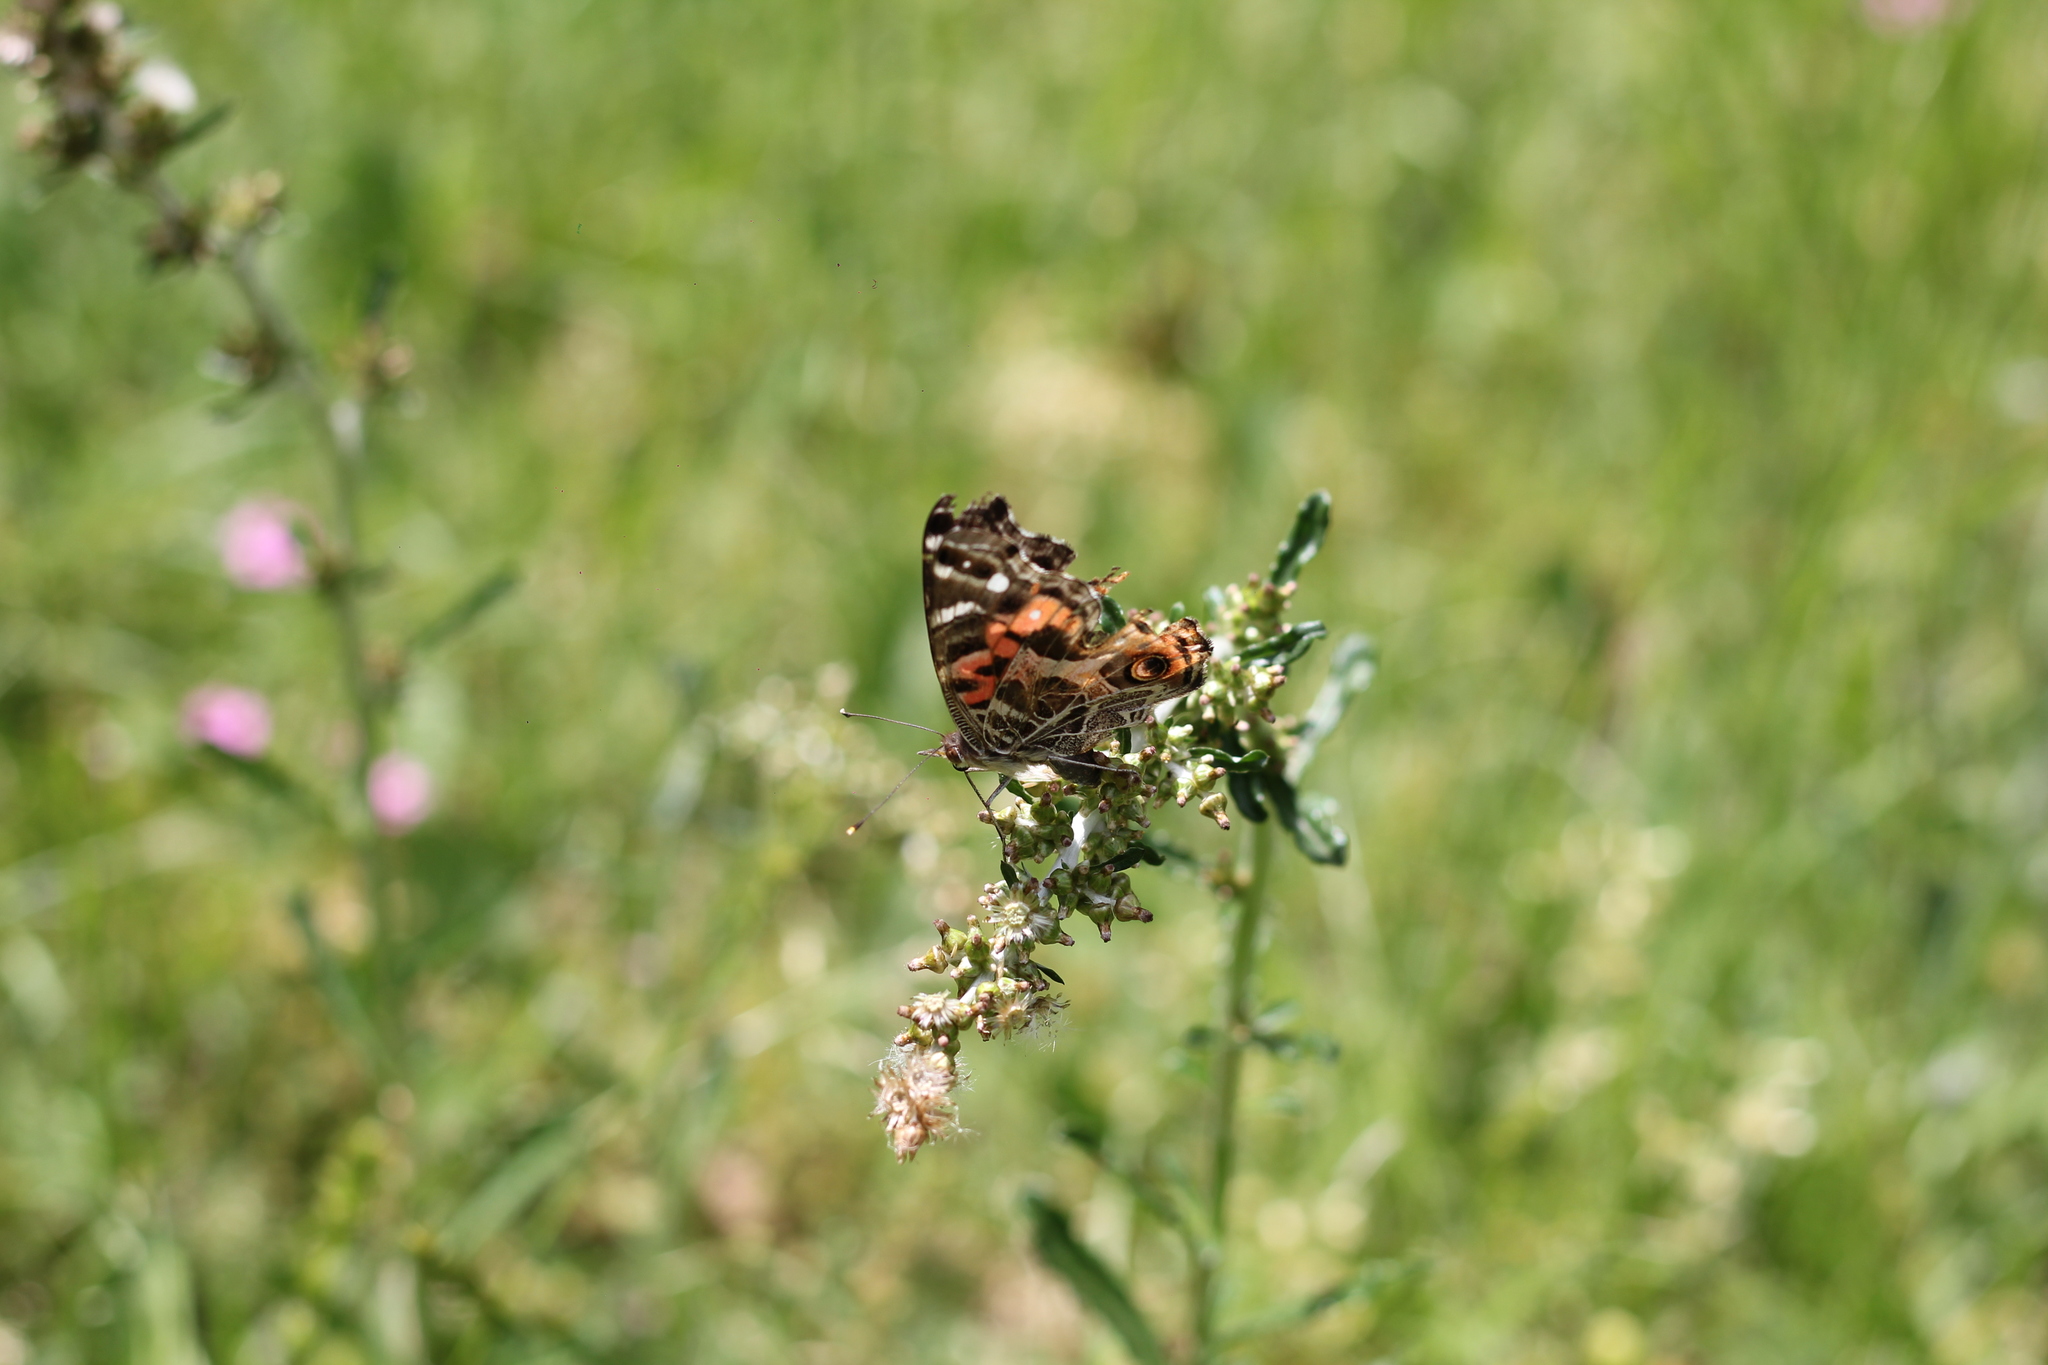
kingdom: Animalia
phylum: Arthropoda
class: Insecta
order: Lepidoptera
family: Nymphalidae
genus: Vanessa
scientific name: Vanessa braziliensis
